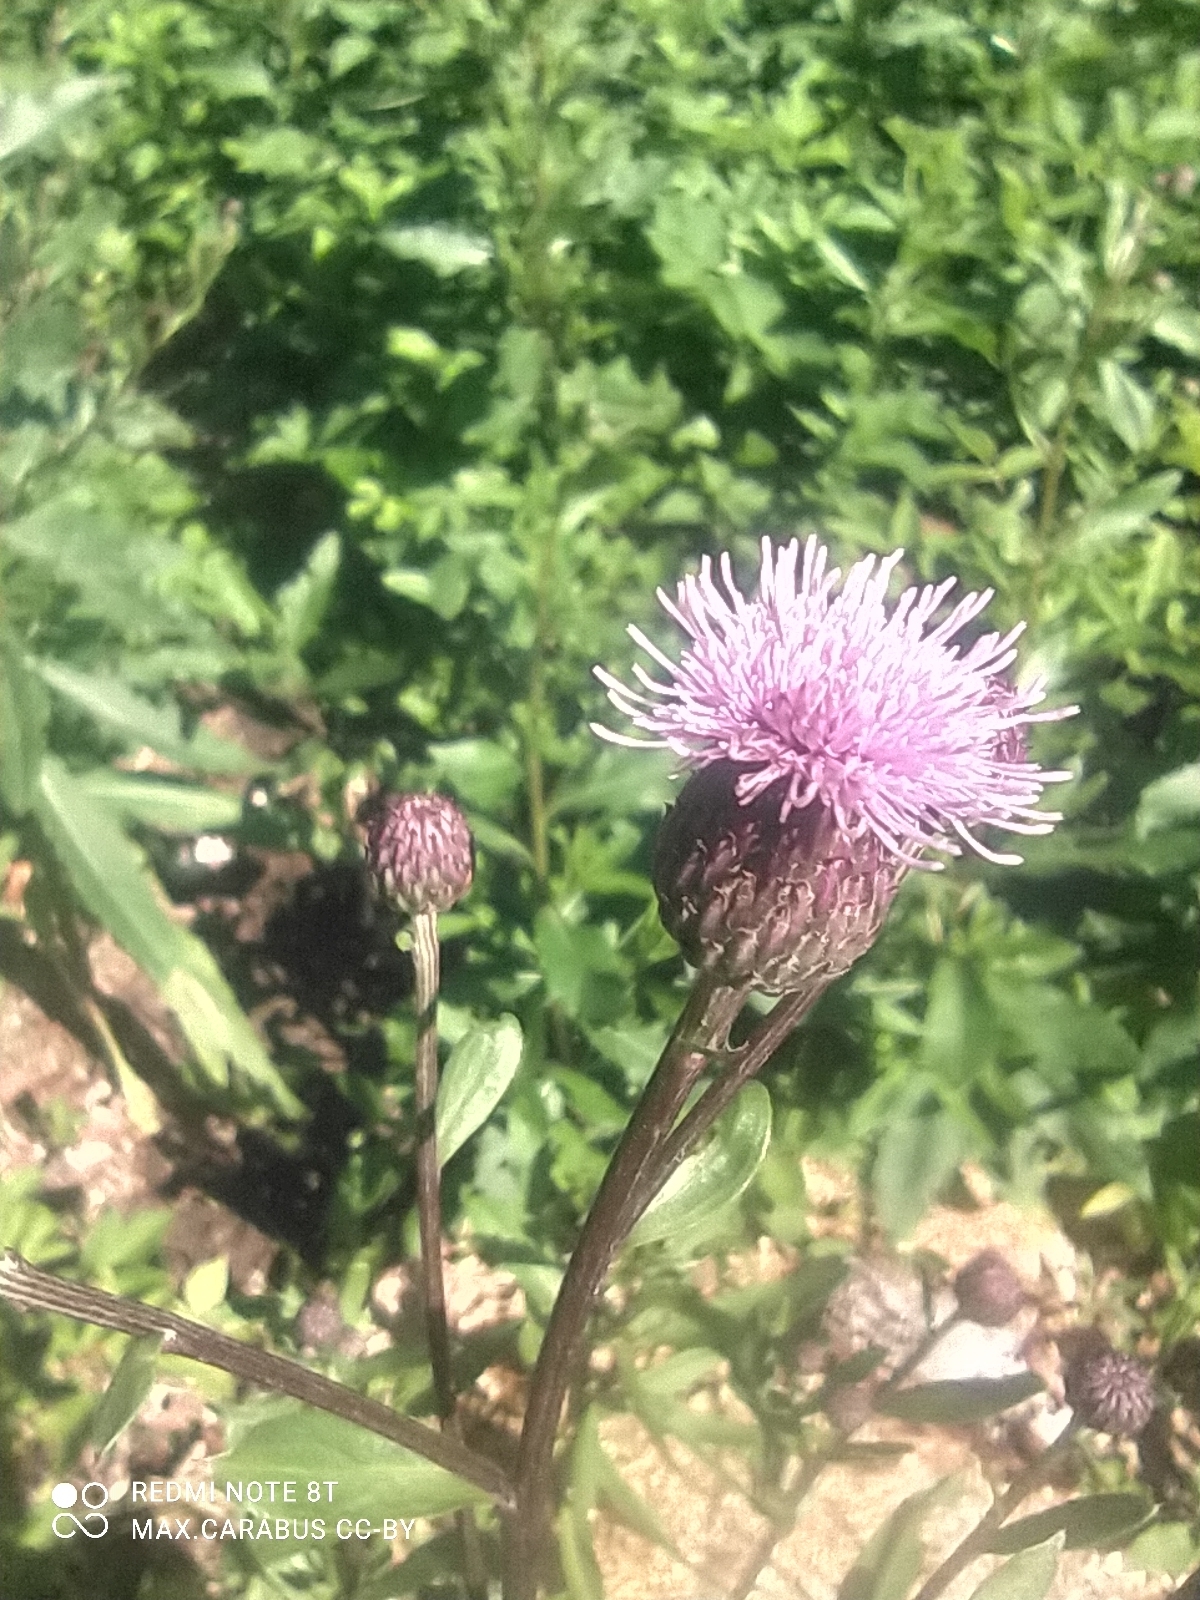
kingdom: Plantae
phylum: Tracheophyta
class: Magnoliopsida
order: Asterales
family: Asteraceae
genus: Cirsium
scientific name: Cirsium arvense
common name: Creeping thistle
